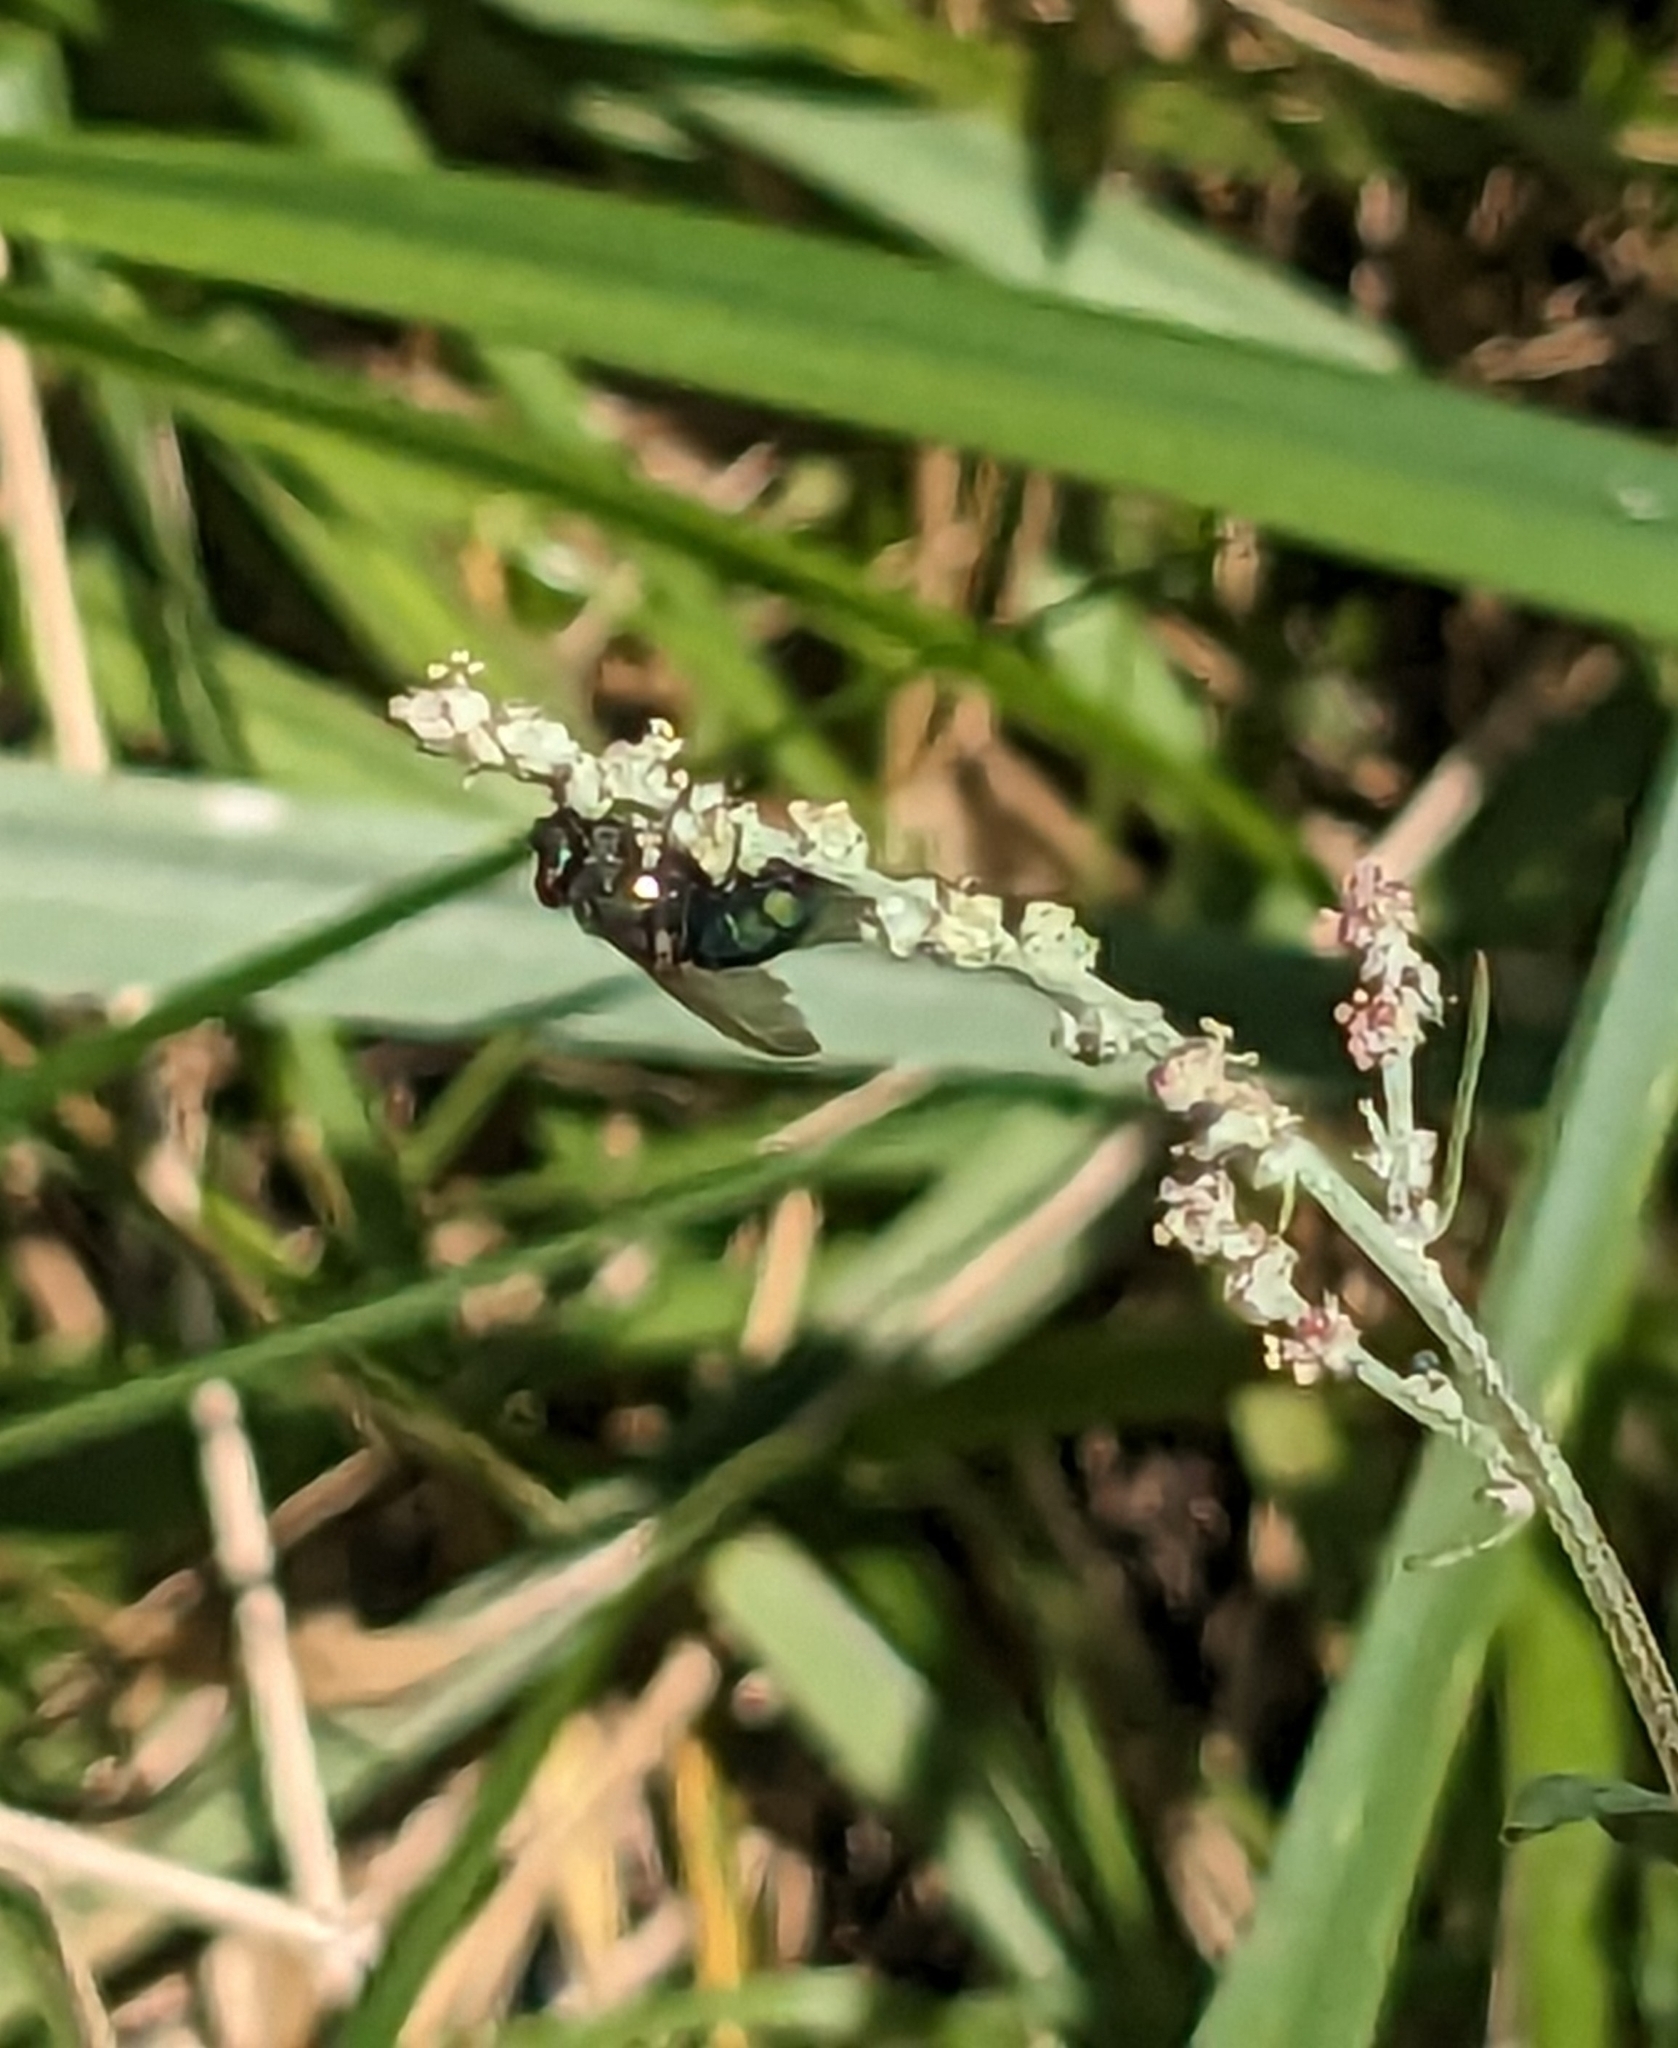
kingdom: Animalia
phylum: Arthropoda
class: Insecta
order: Diptera
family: Calliphoridae
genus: Lucilia
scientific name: Lucilia
